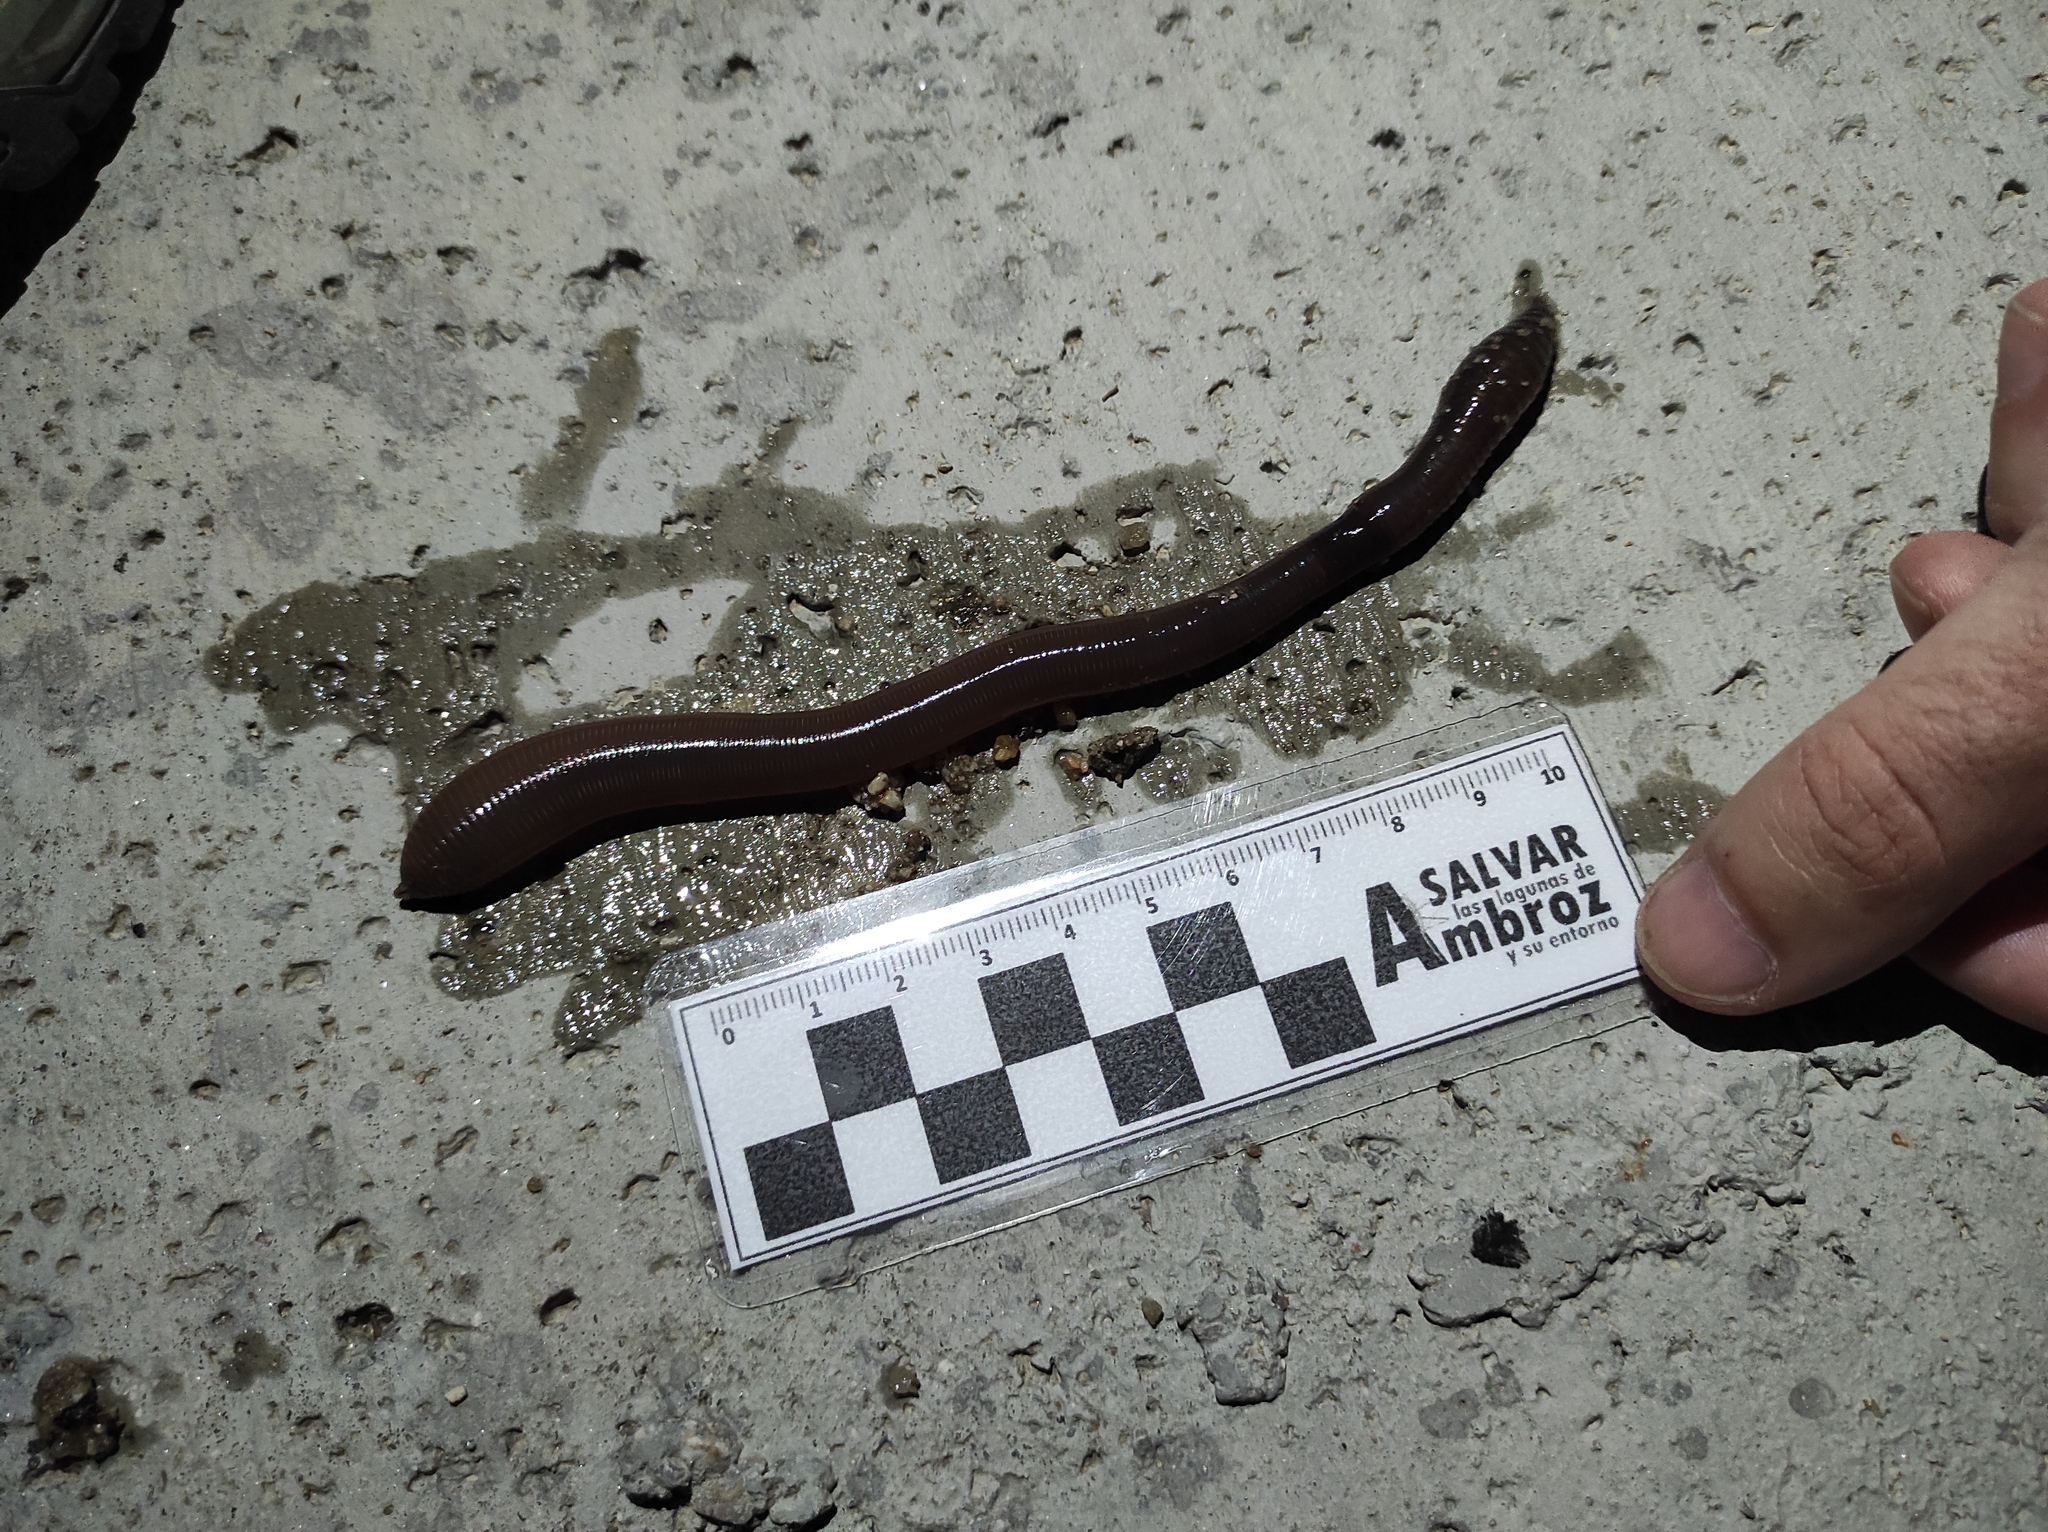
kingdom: Animalia
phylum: Annelida
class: Clitellata
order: Crassiclitellata
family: Lumbricidae
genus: Lumbricus
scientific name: Lumbricus terrestris
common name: Common earthworm
